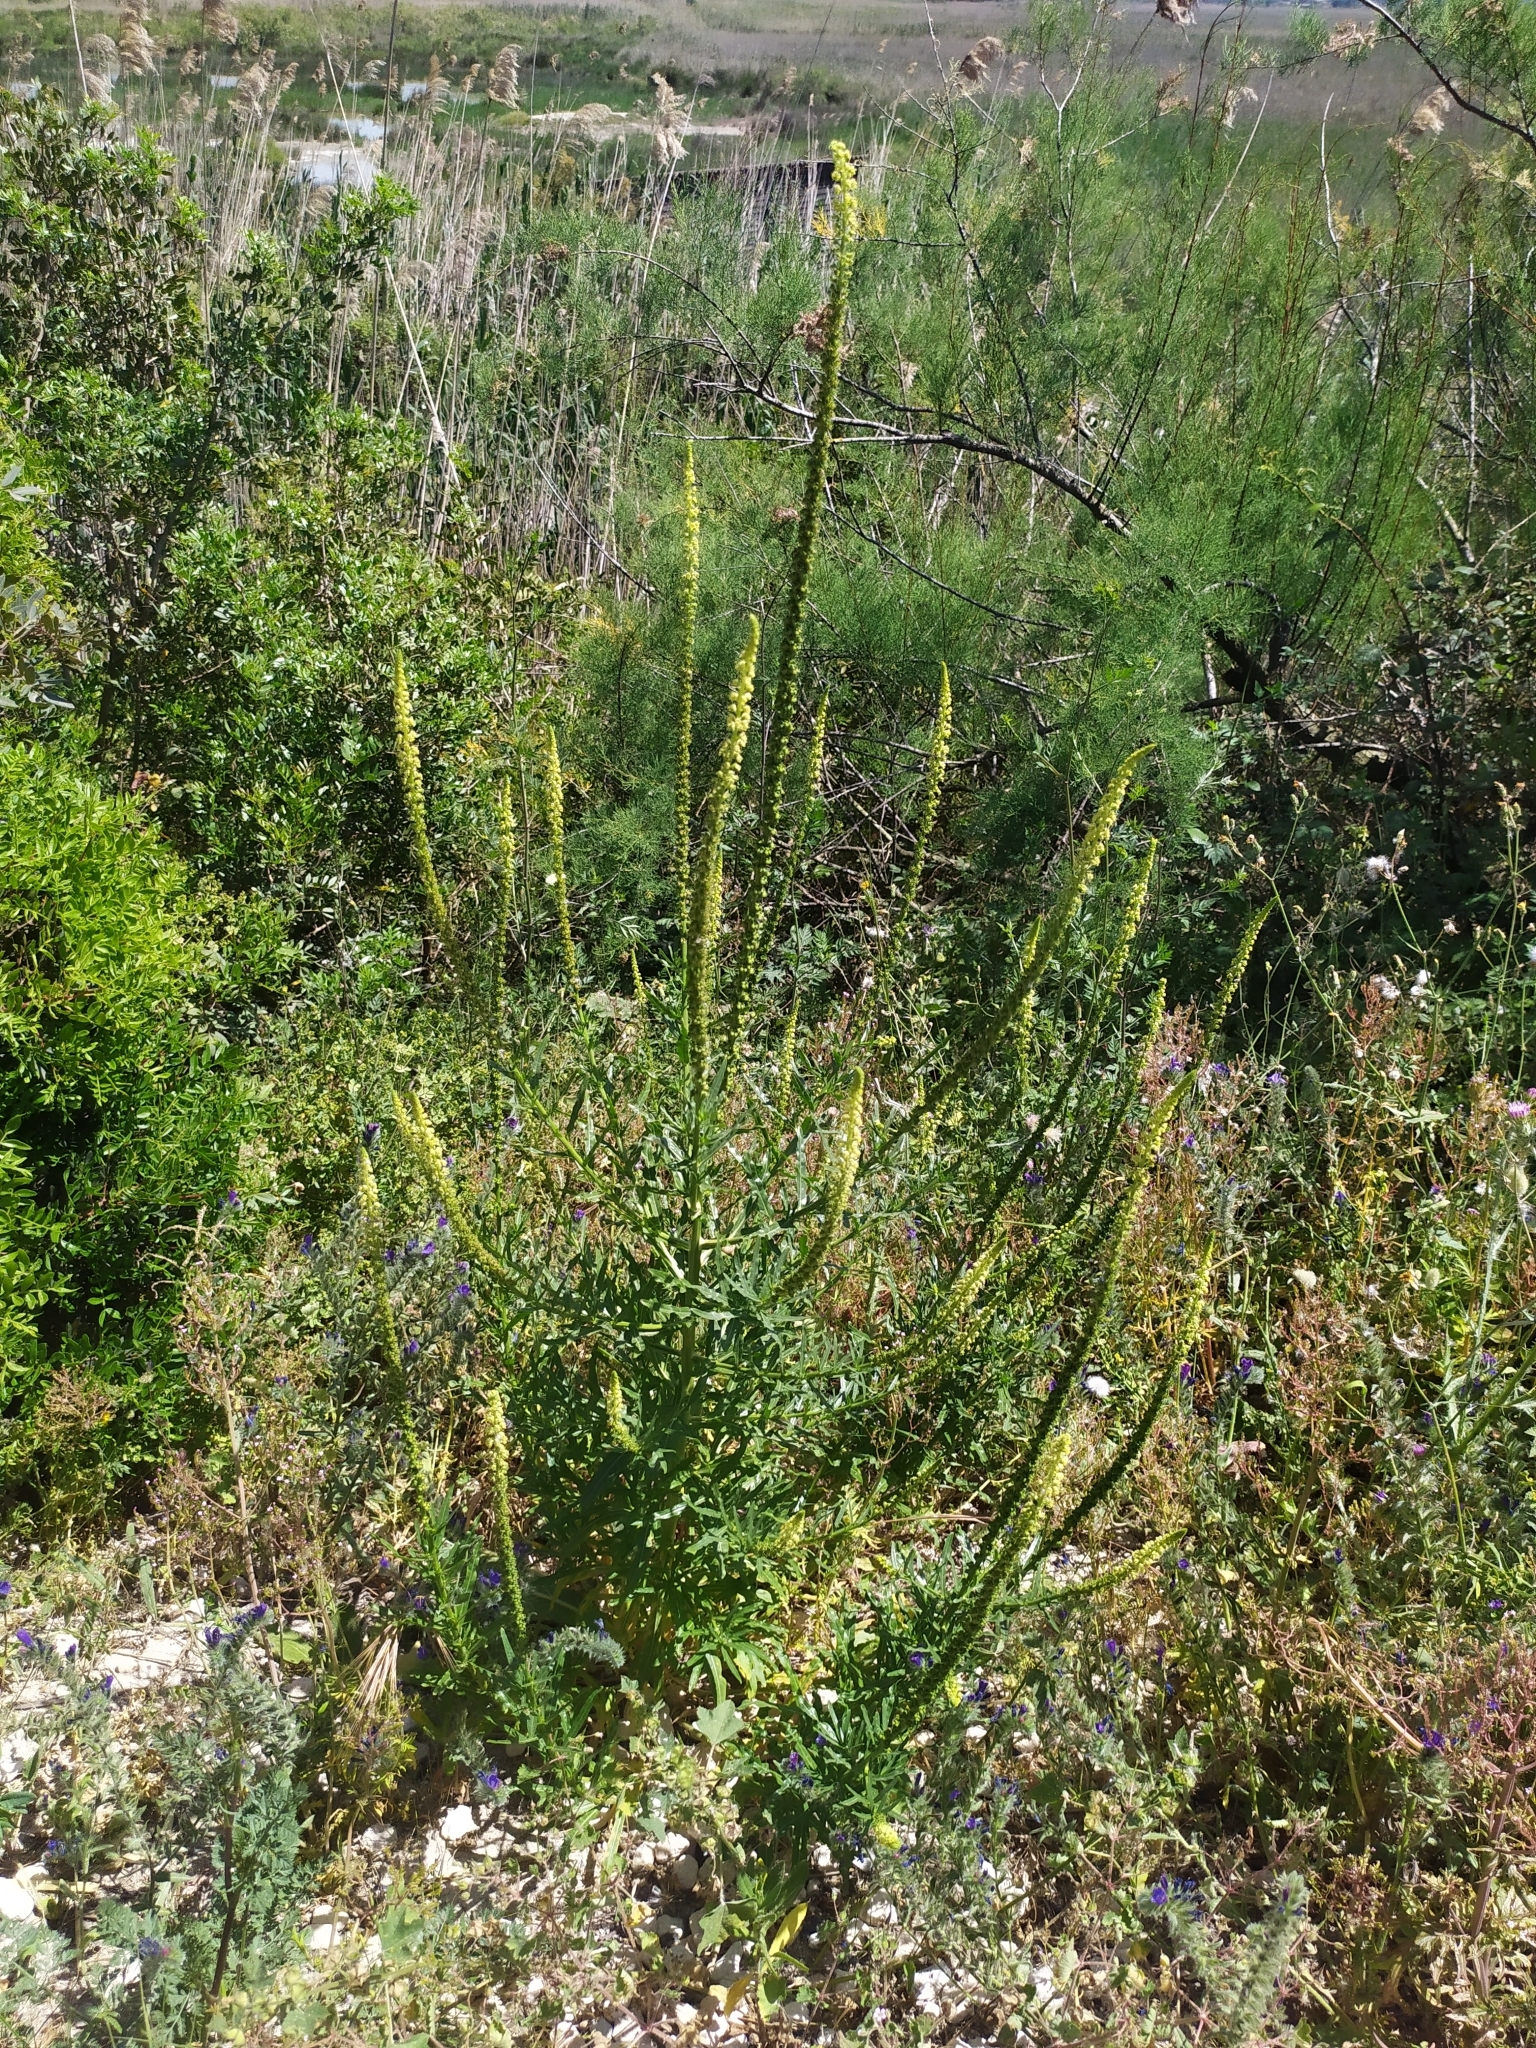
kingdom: Plantae
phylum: Tracheophyta
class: Magnoliopsida
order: Brassicales
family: Resedaceae
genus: Reseda
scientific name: Reseda luteola
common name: Weld
